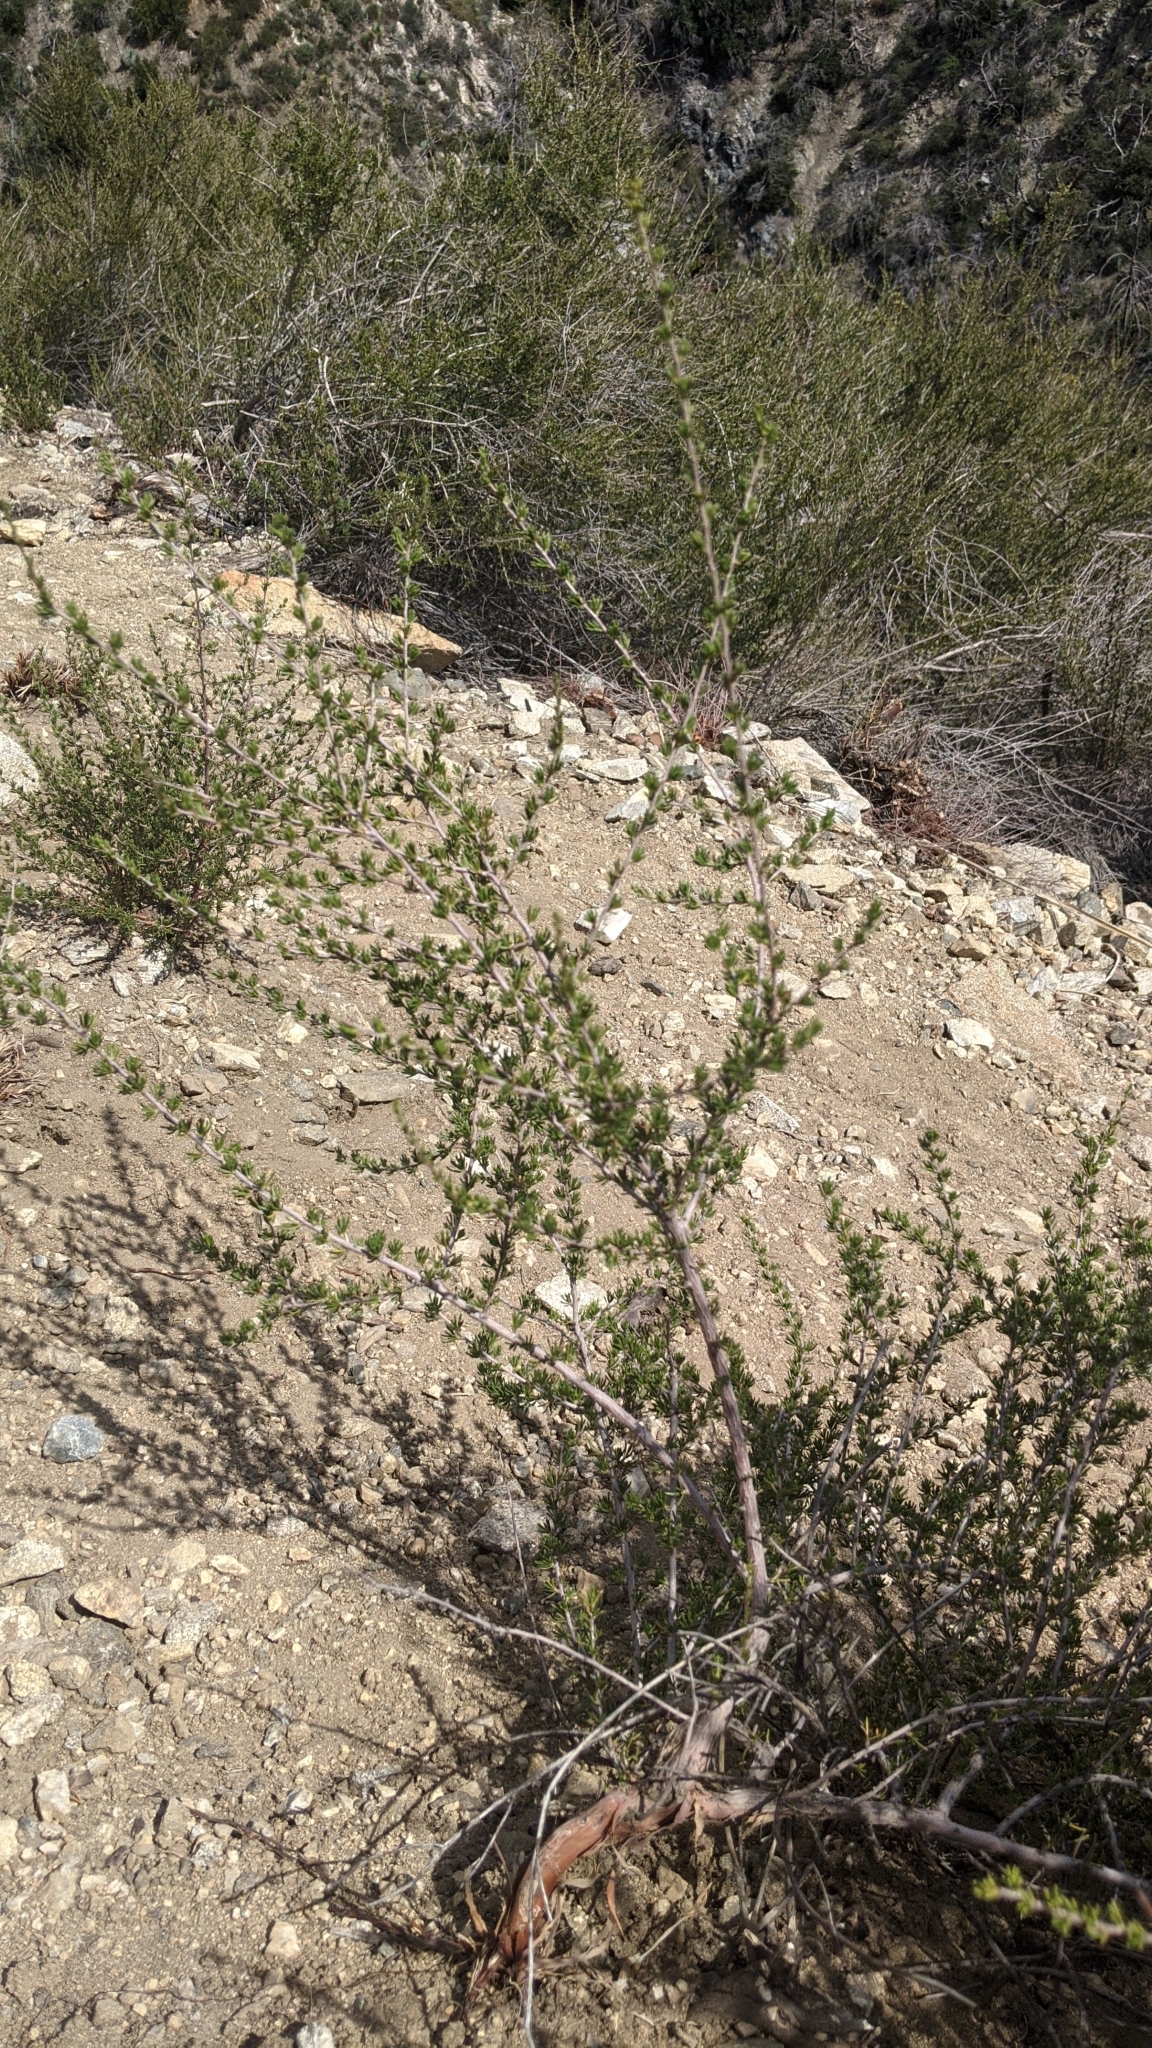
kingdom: Plantae
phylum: Tracheophyta
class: Magnoliopsida
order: Rosales
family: Rosaceae
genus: Adenostoma
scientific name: Adenostoma fasciculatum
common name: Chamise
